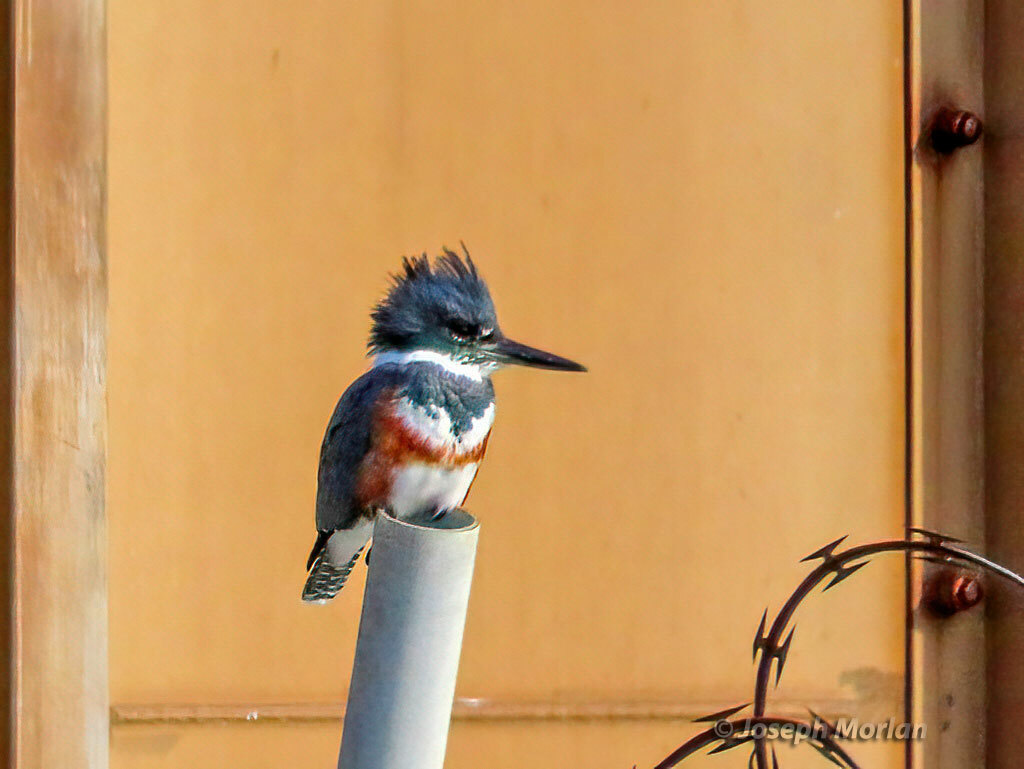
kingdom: Animalia
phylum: Chordata
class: Aves
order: Coraciiformes
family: Alcedinidae
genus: Megaceryle
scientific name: Megaceryle alcyon
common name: Belted kingfisher
